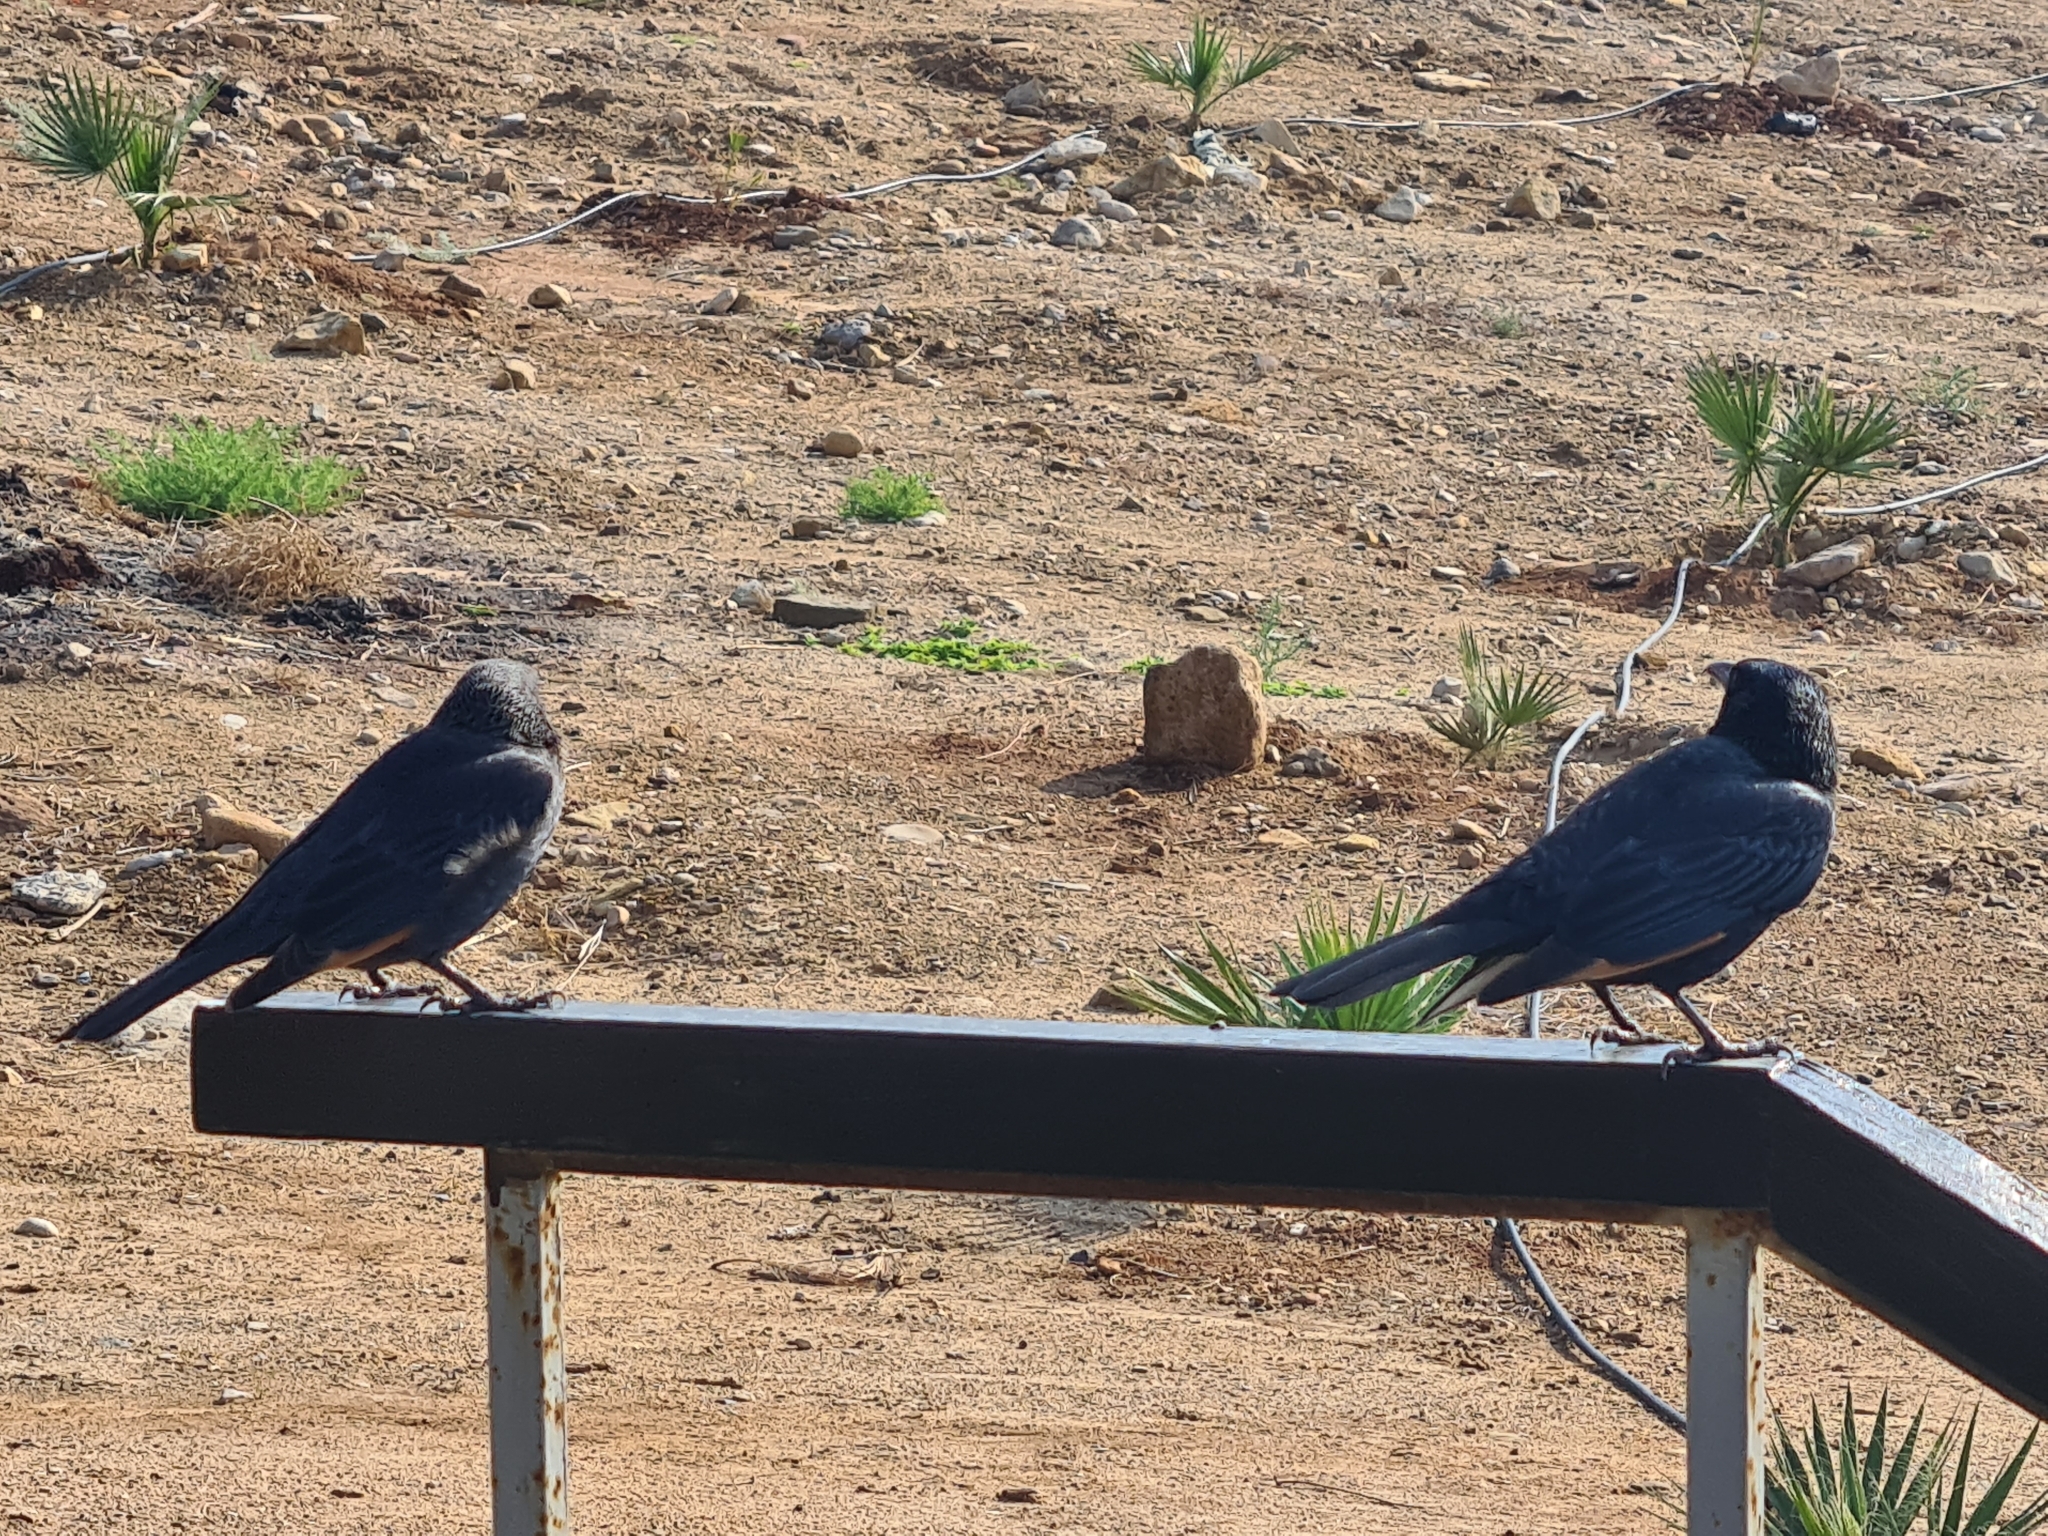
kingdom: Animalia
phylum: Chordata
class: Aves
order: Passeriformes
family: Sturnidae
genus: Onychognathus
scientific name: Onychognathus tristramii
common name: Tristram's starling
